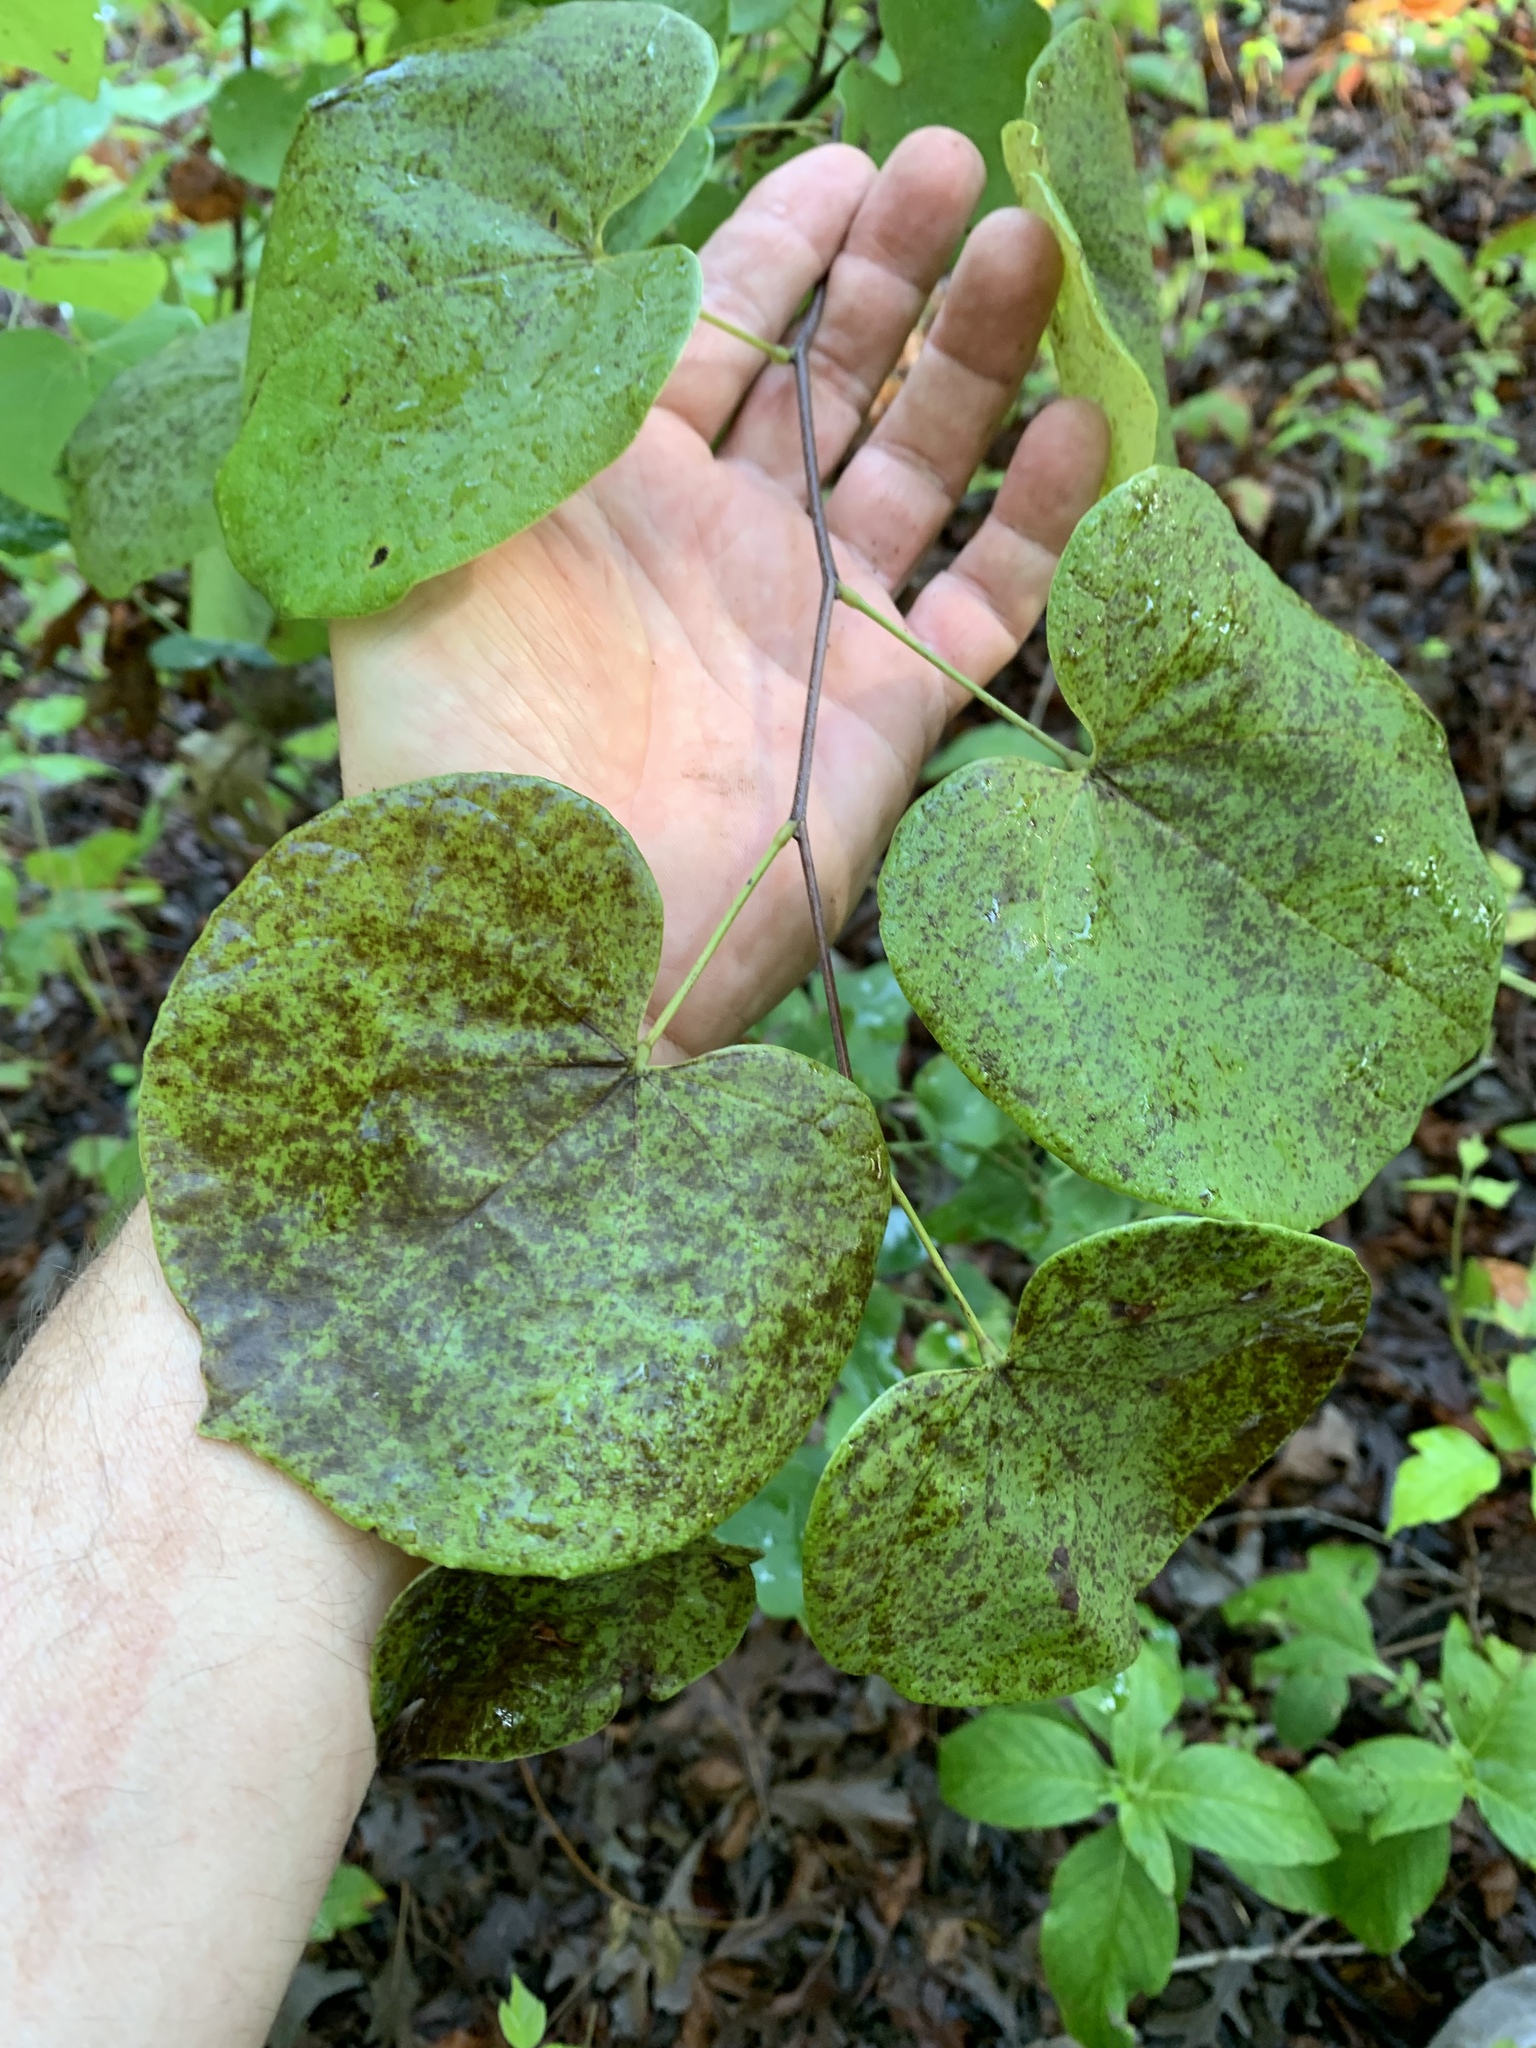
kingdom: Plantae
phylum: Tracheophyta
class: Magnoliopsida
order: Fabales
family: Fabaceae
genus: Cercis
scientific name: Cercis canadensis
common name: Eastern redbud
